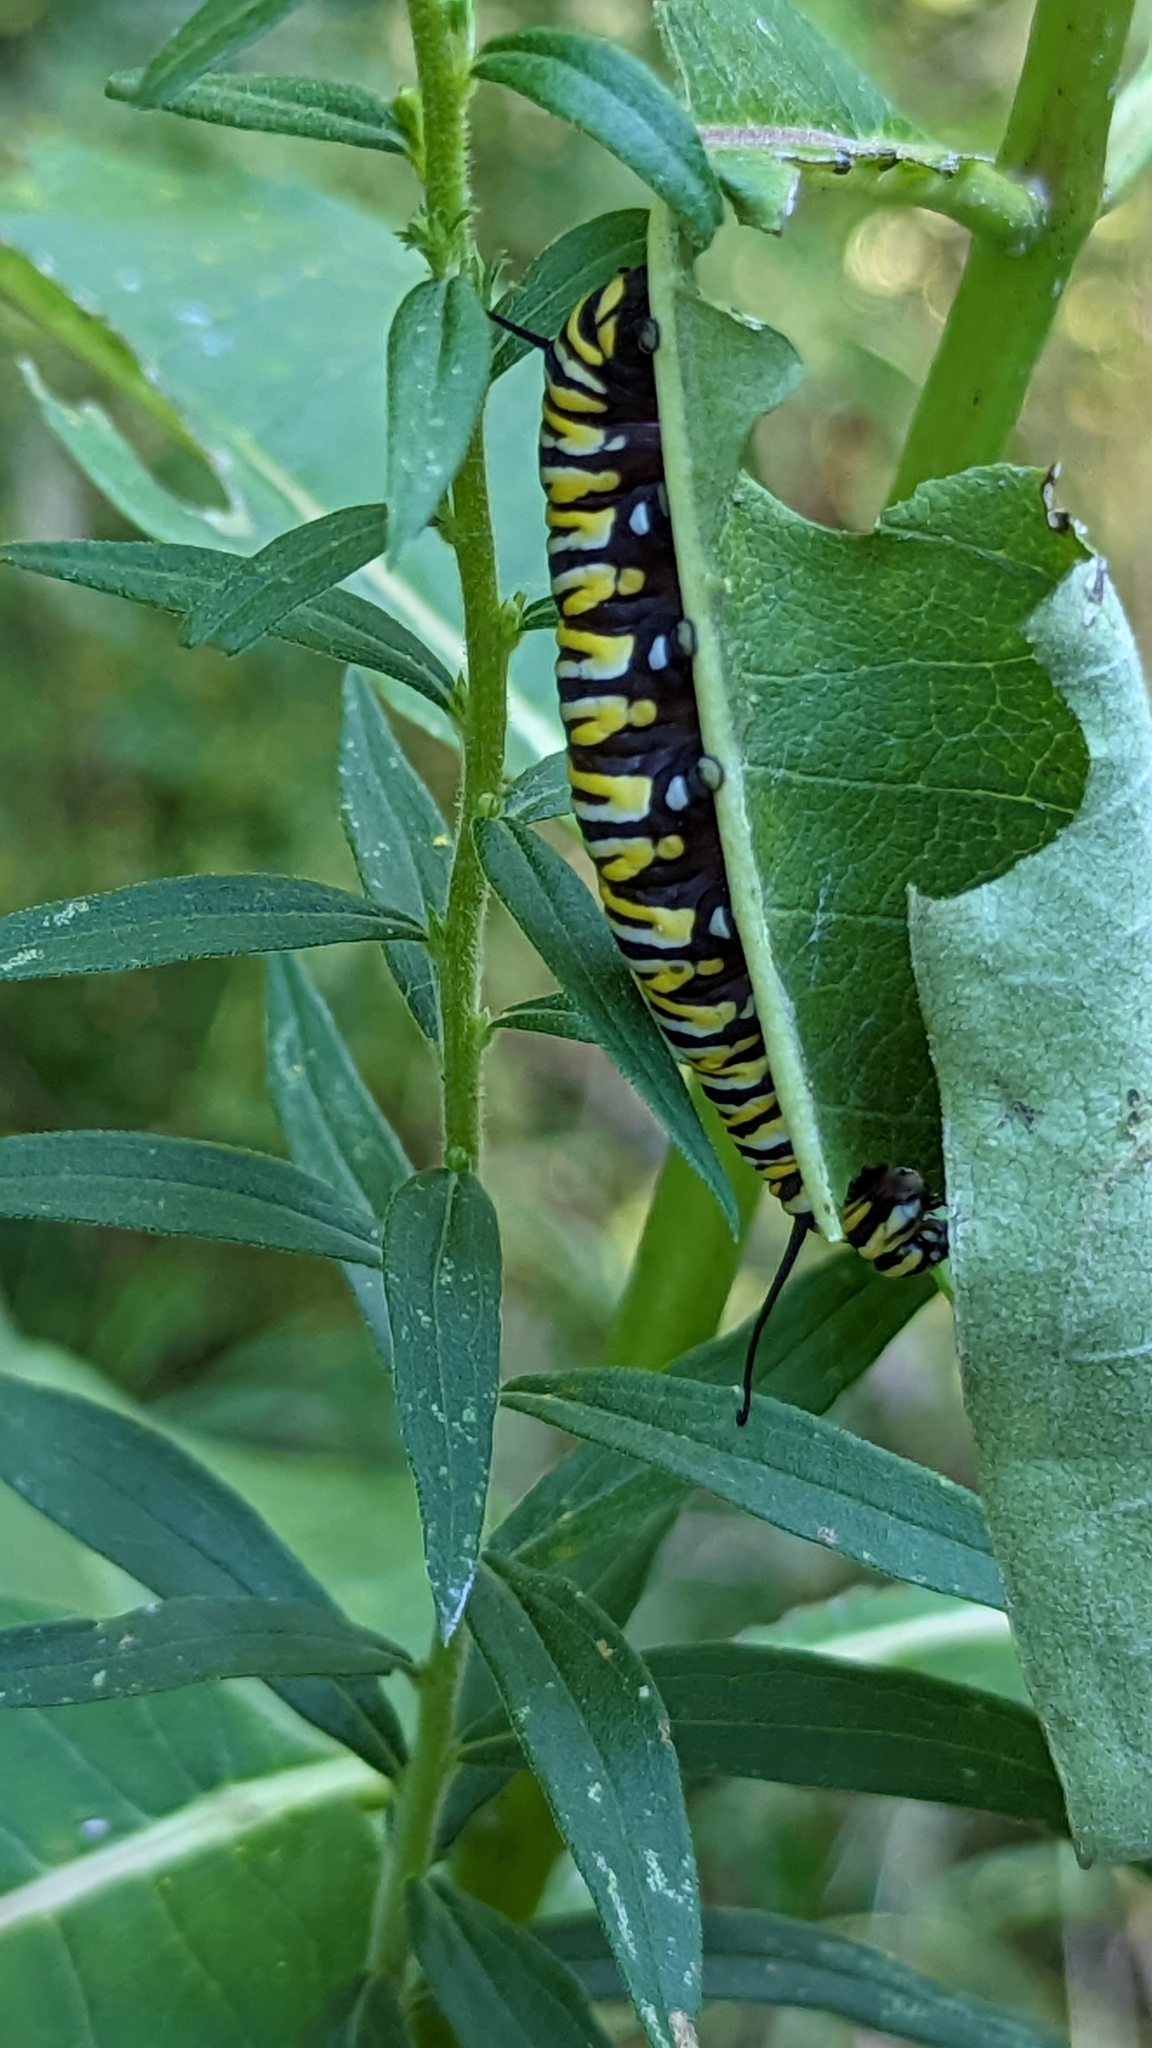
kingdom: Animalia
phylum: Arthropoda
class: Insecta
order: Lepidoptera
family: Nymphalidae
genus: Danaus
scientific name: Danaus plexippus
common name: Monarch
